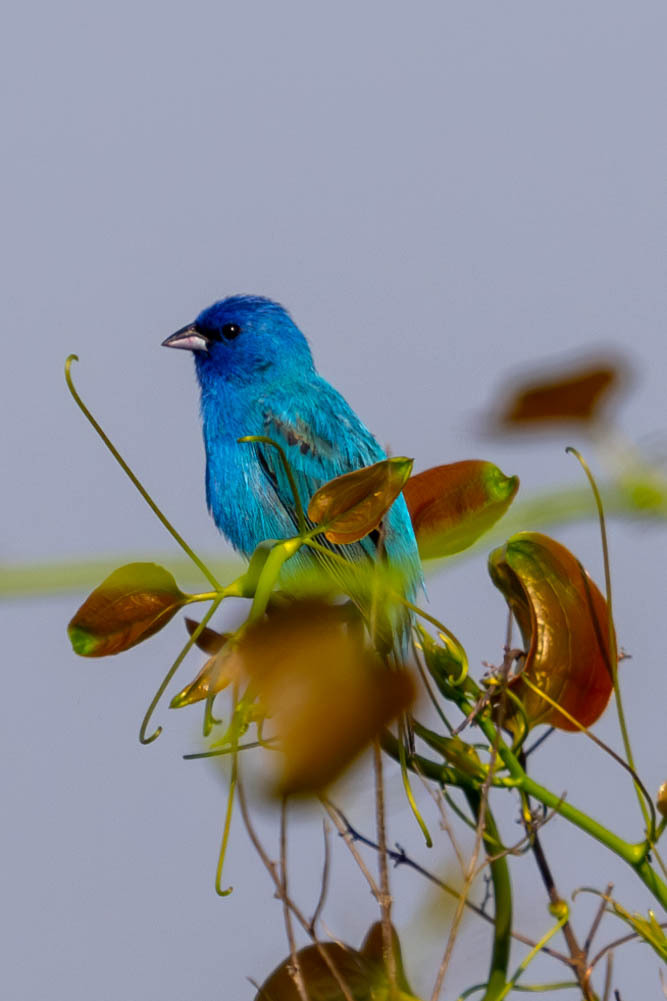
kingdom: Animalia
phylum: Chordata
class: Aves
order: Passeriformes
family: Cardinalidae
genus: Passerina
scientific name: Passerina cyanea
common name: Indigo bunting
